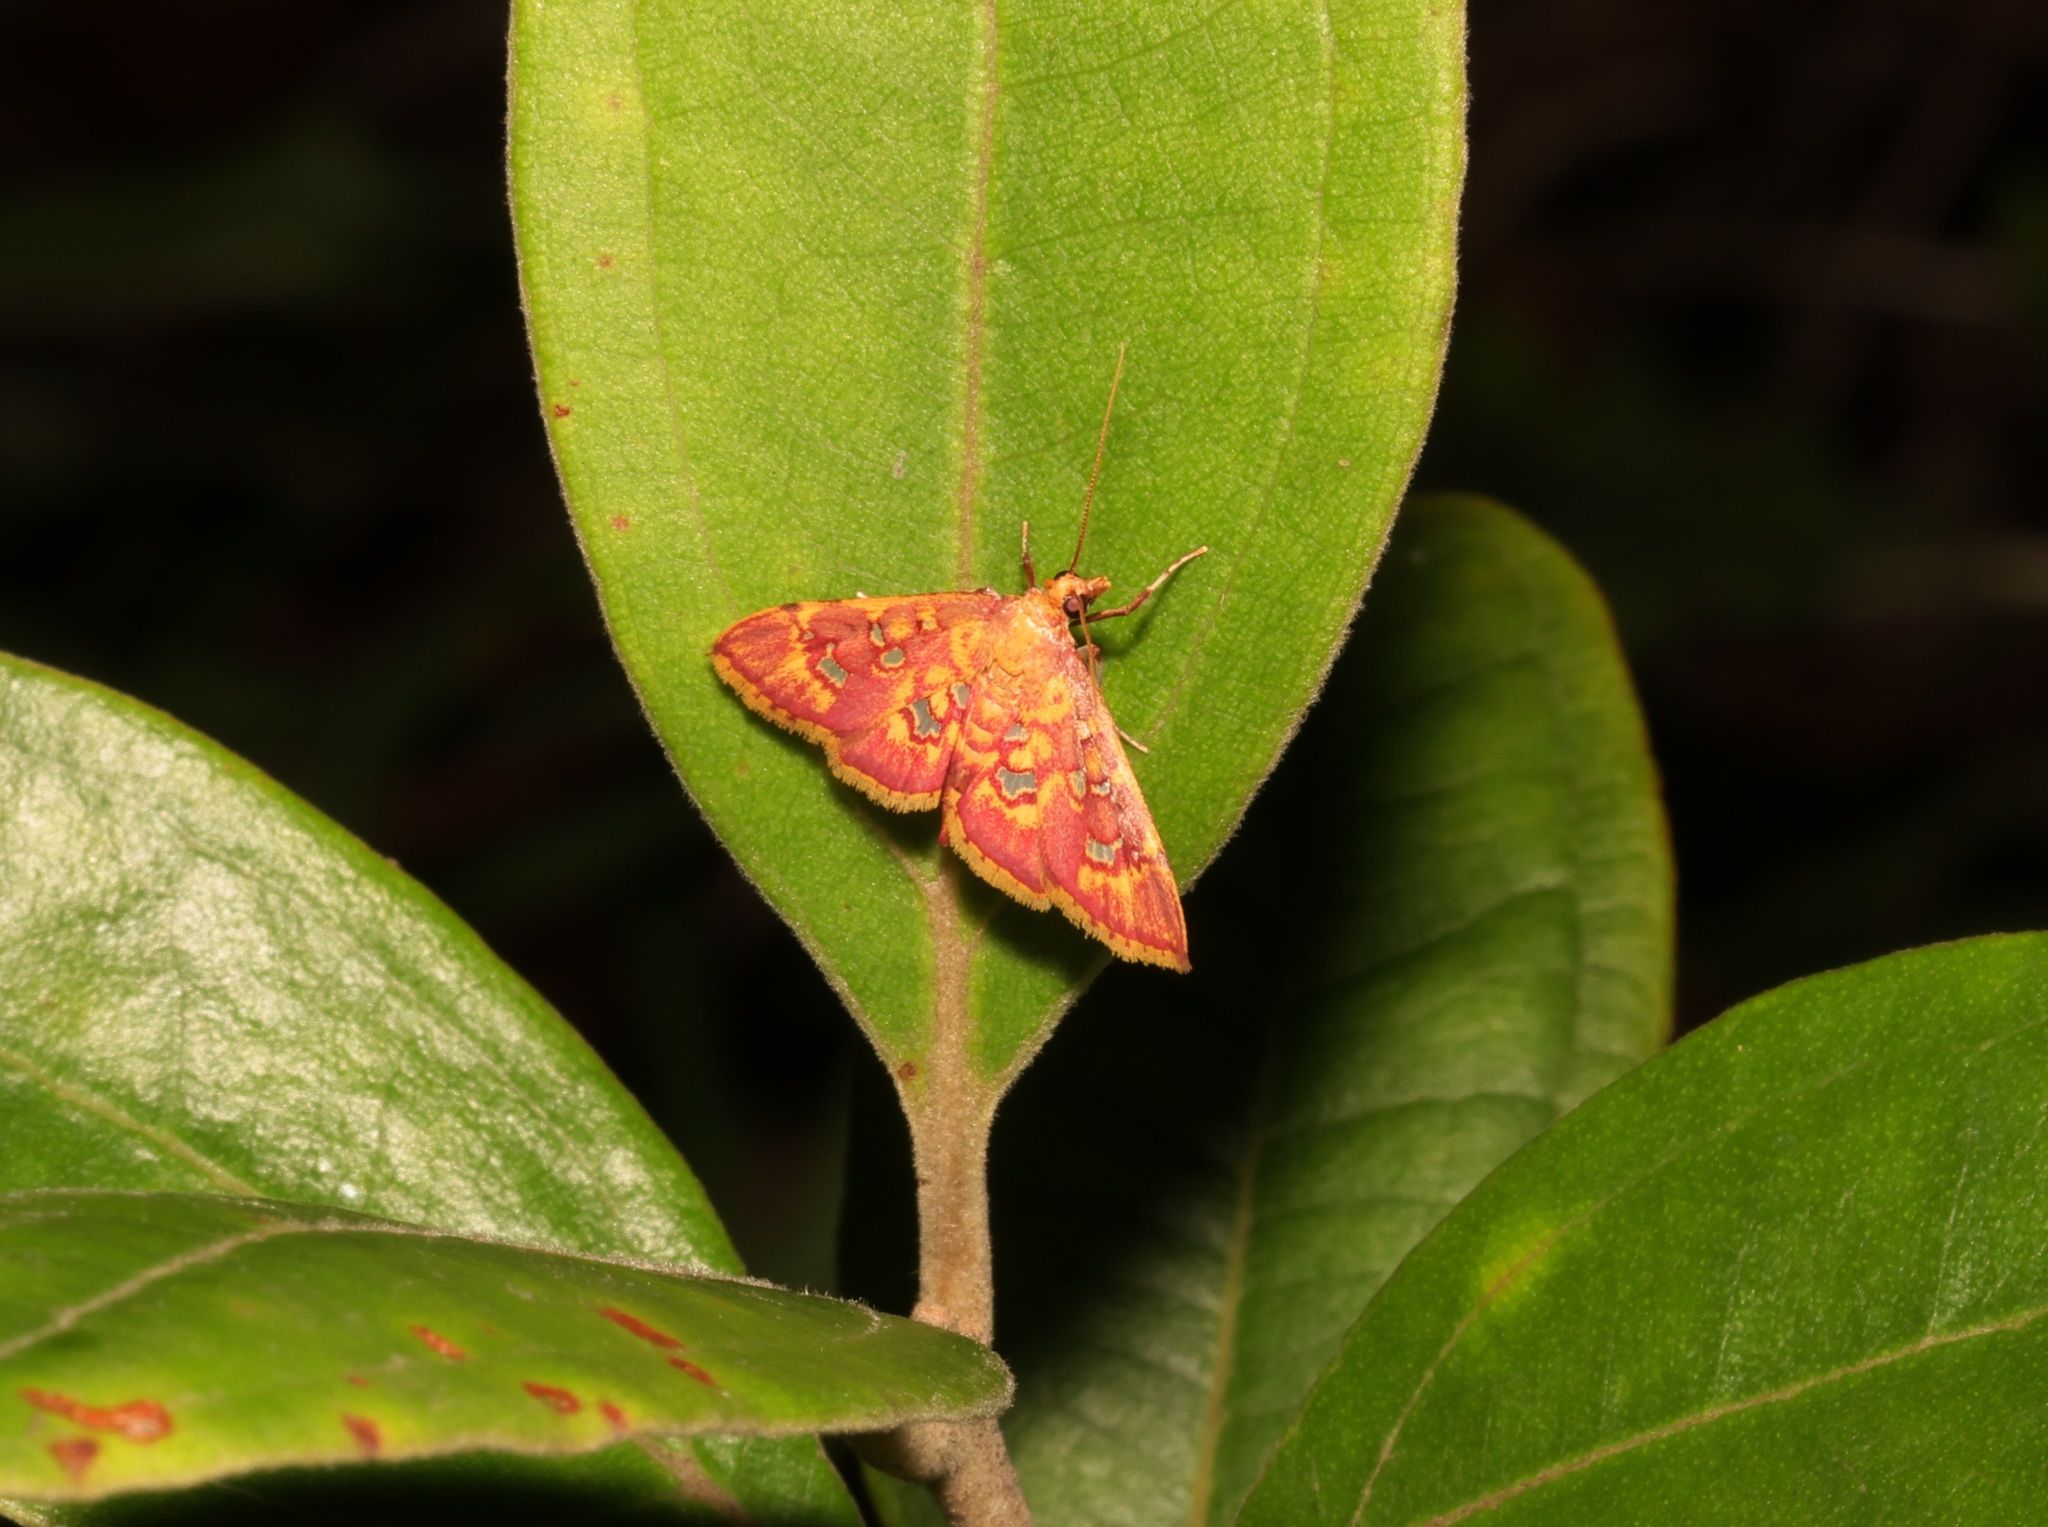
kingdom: Animalia
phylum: Arthropoda
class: Insecta
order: Lepidoptera
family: Crambidae
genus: Ischnurges
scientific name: Ischnurges gratiosalis
